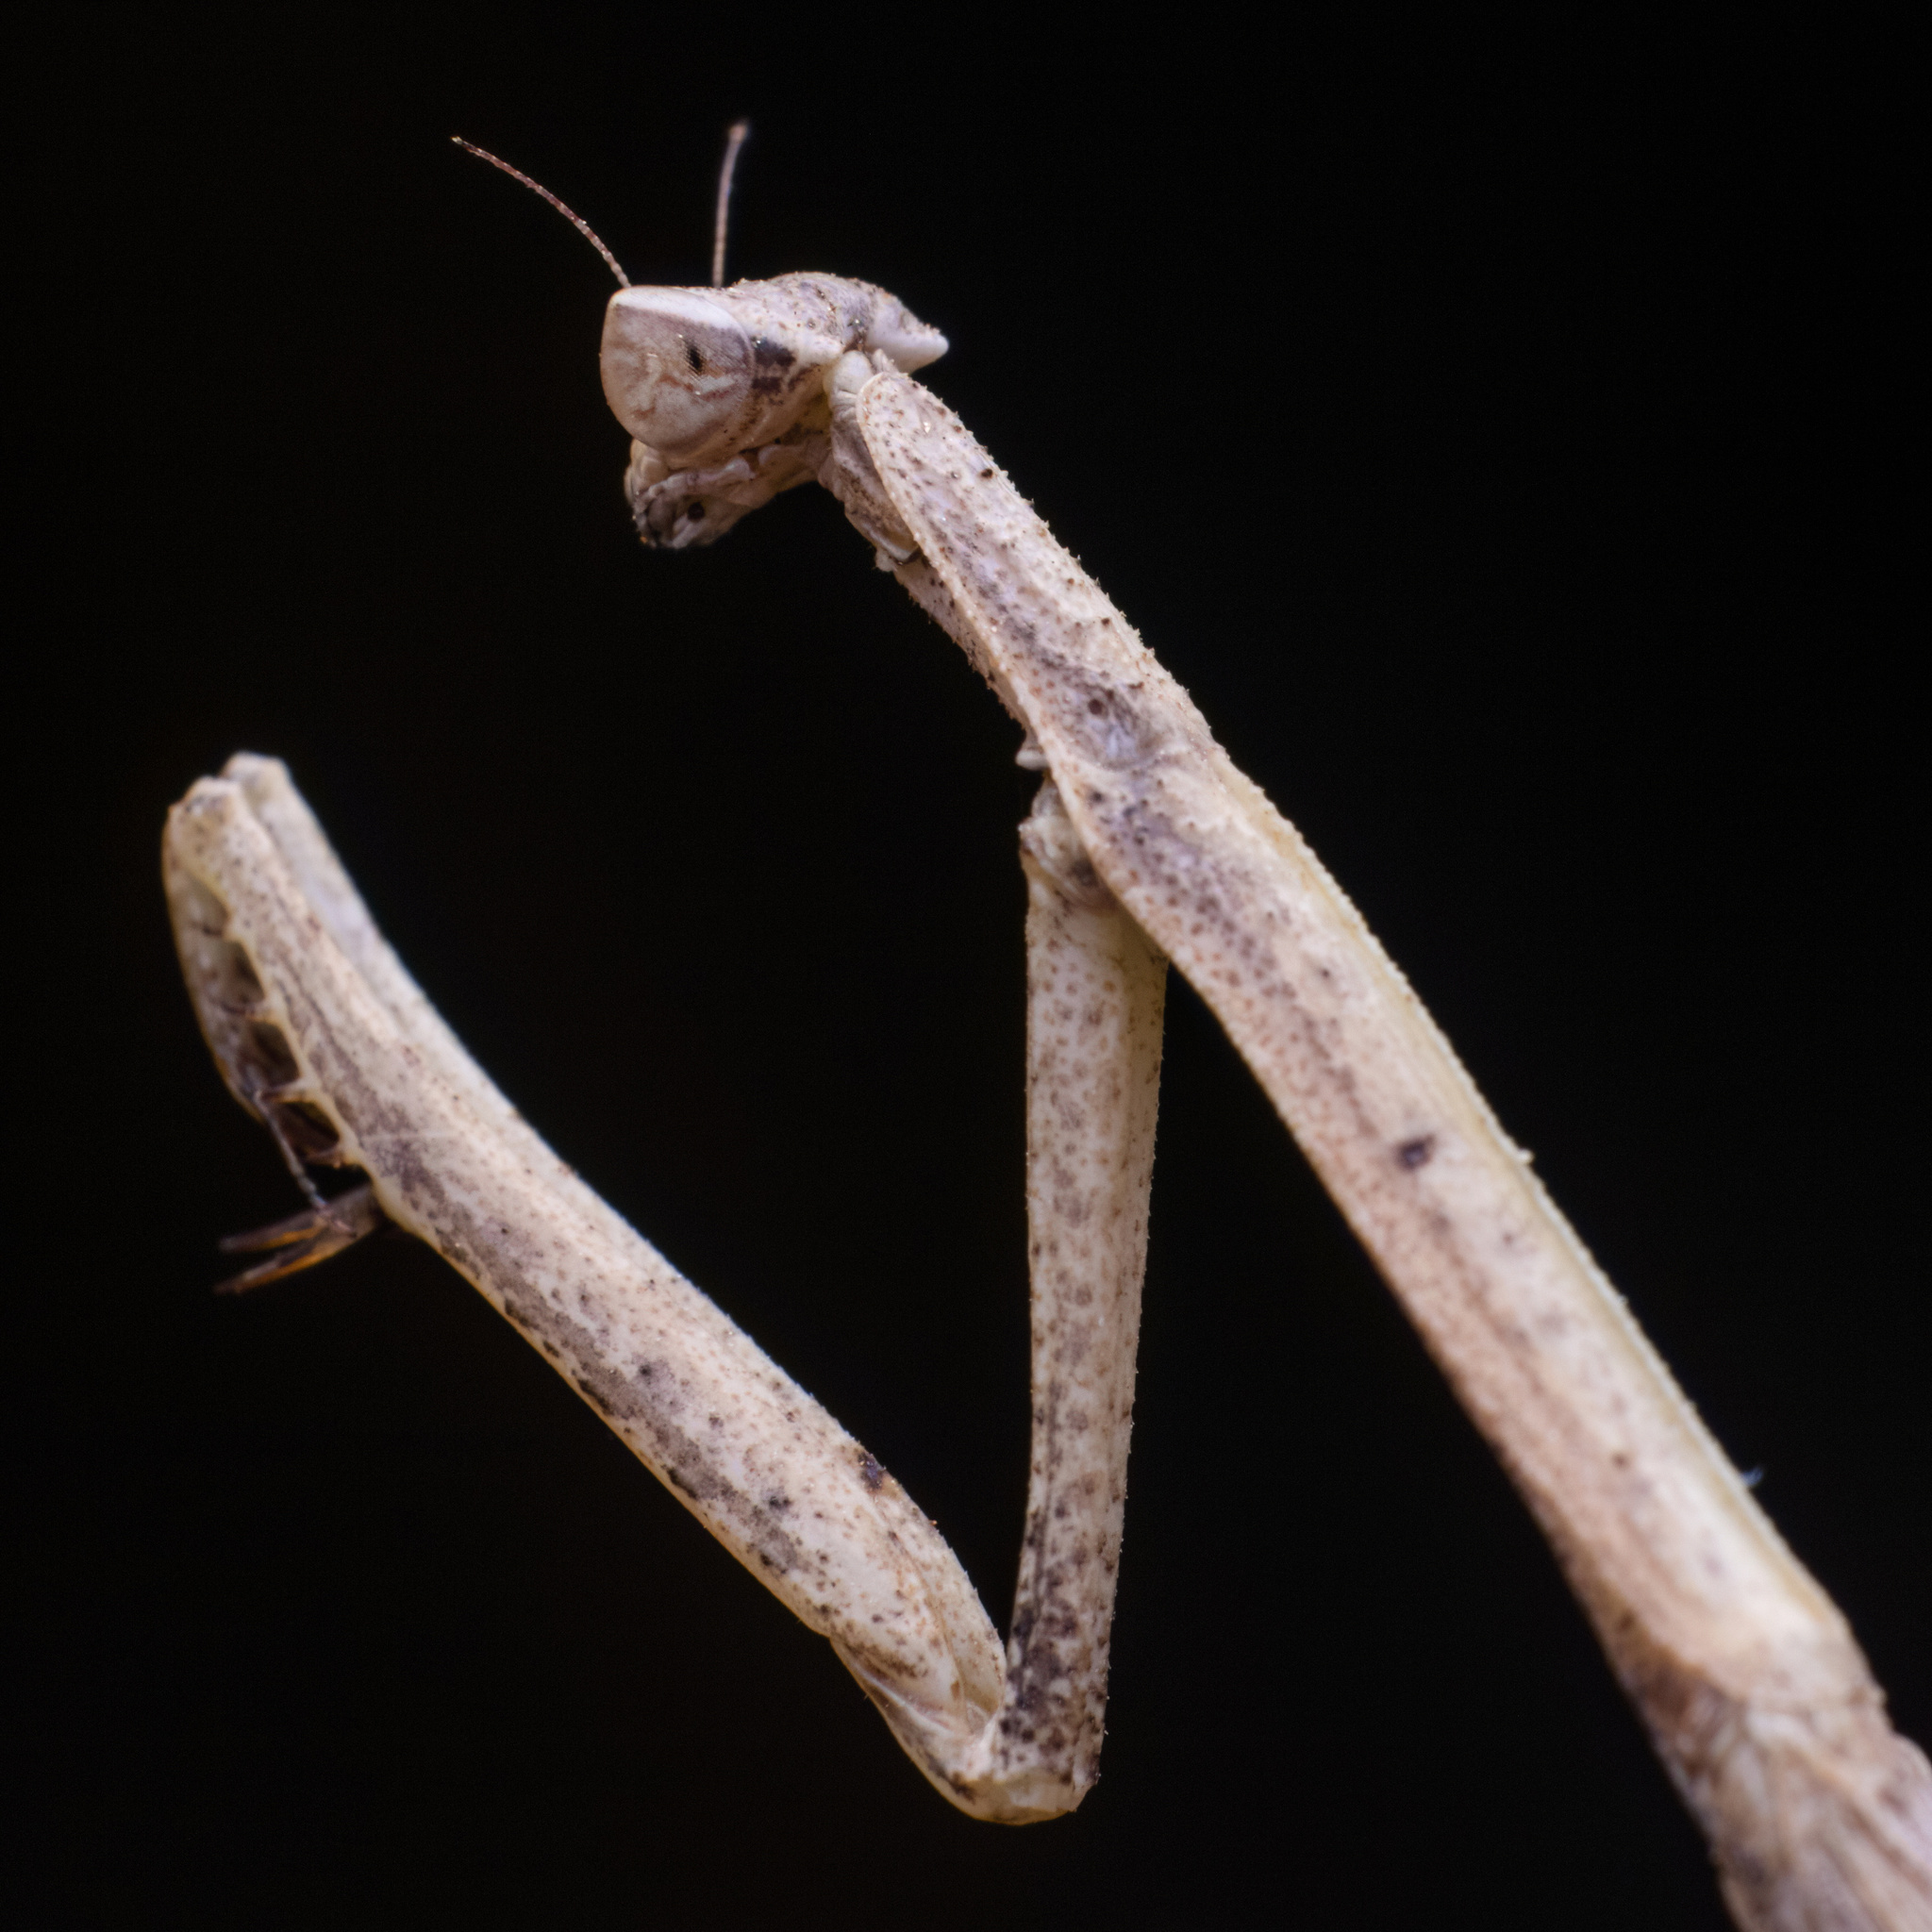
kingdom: Animalia
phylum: Arthropoda
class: Insecta
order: Mantodea
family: Eremiaphilidae
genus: Parathespis
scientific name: Parathespis humbertiana
